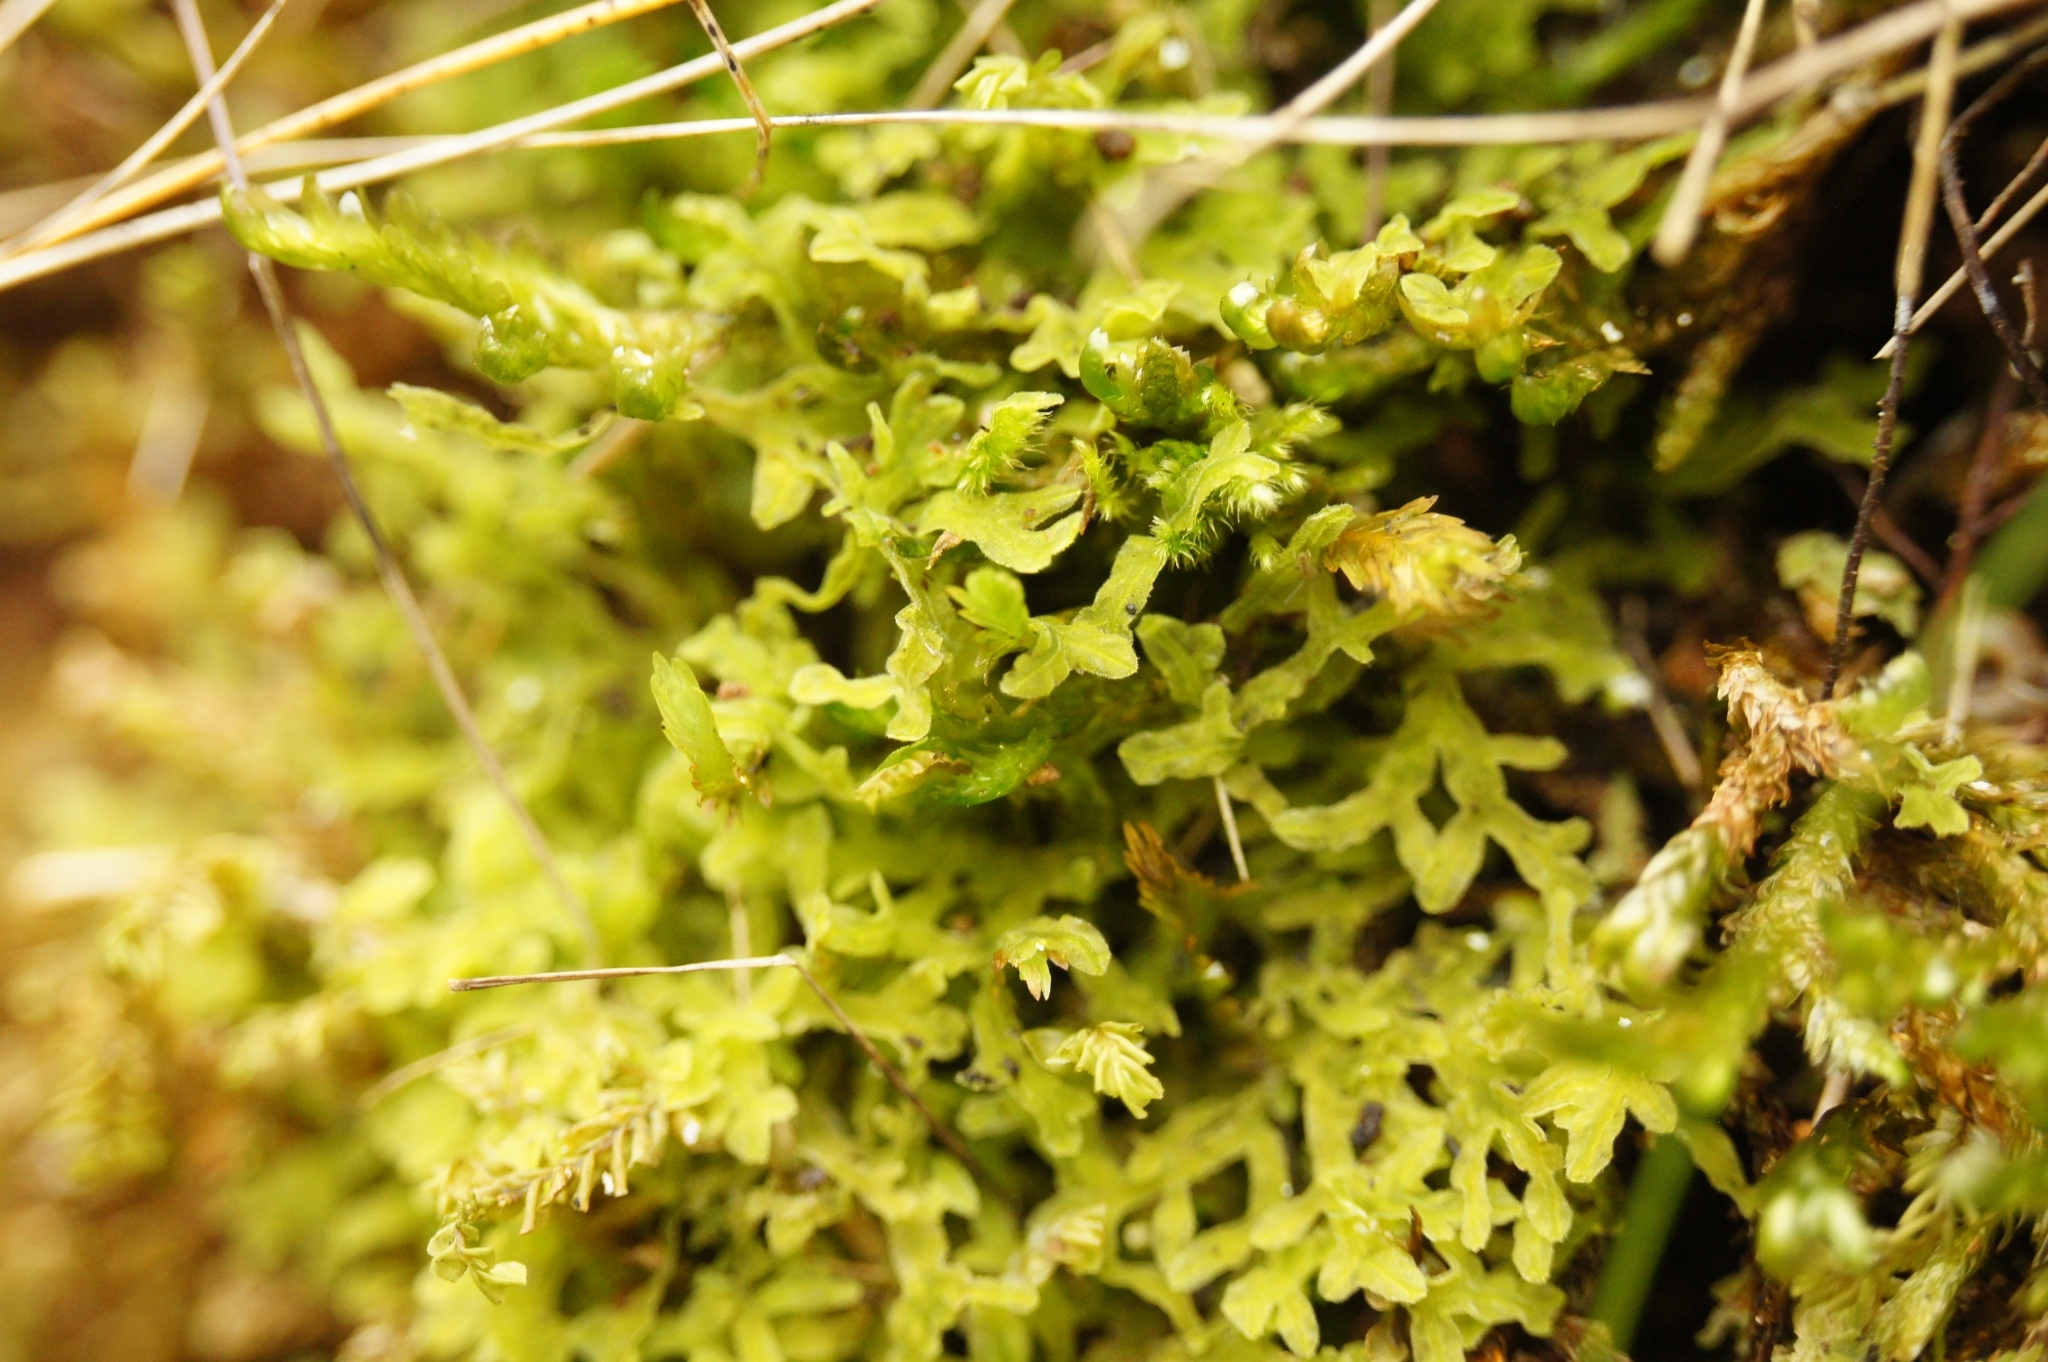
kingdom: Plantae
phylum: Marchantiophyta
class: Jungermanniopsida
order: Metzgeriales
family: Metzgeriaceae
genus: Metzgeria
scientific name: Metzgeria pubescens
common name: Downy veilwort
